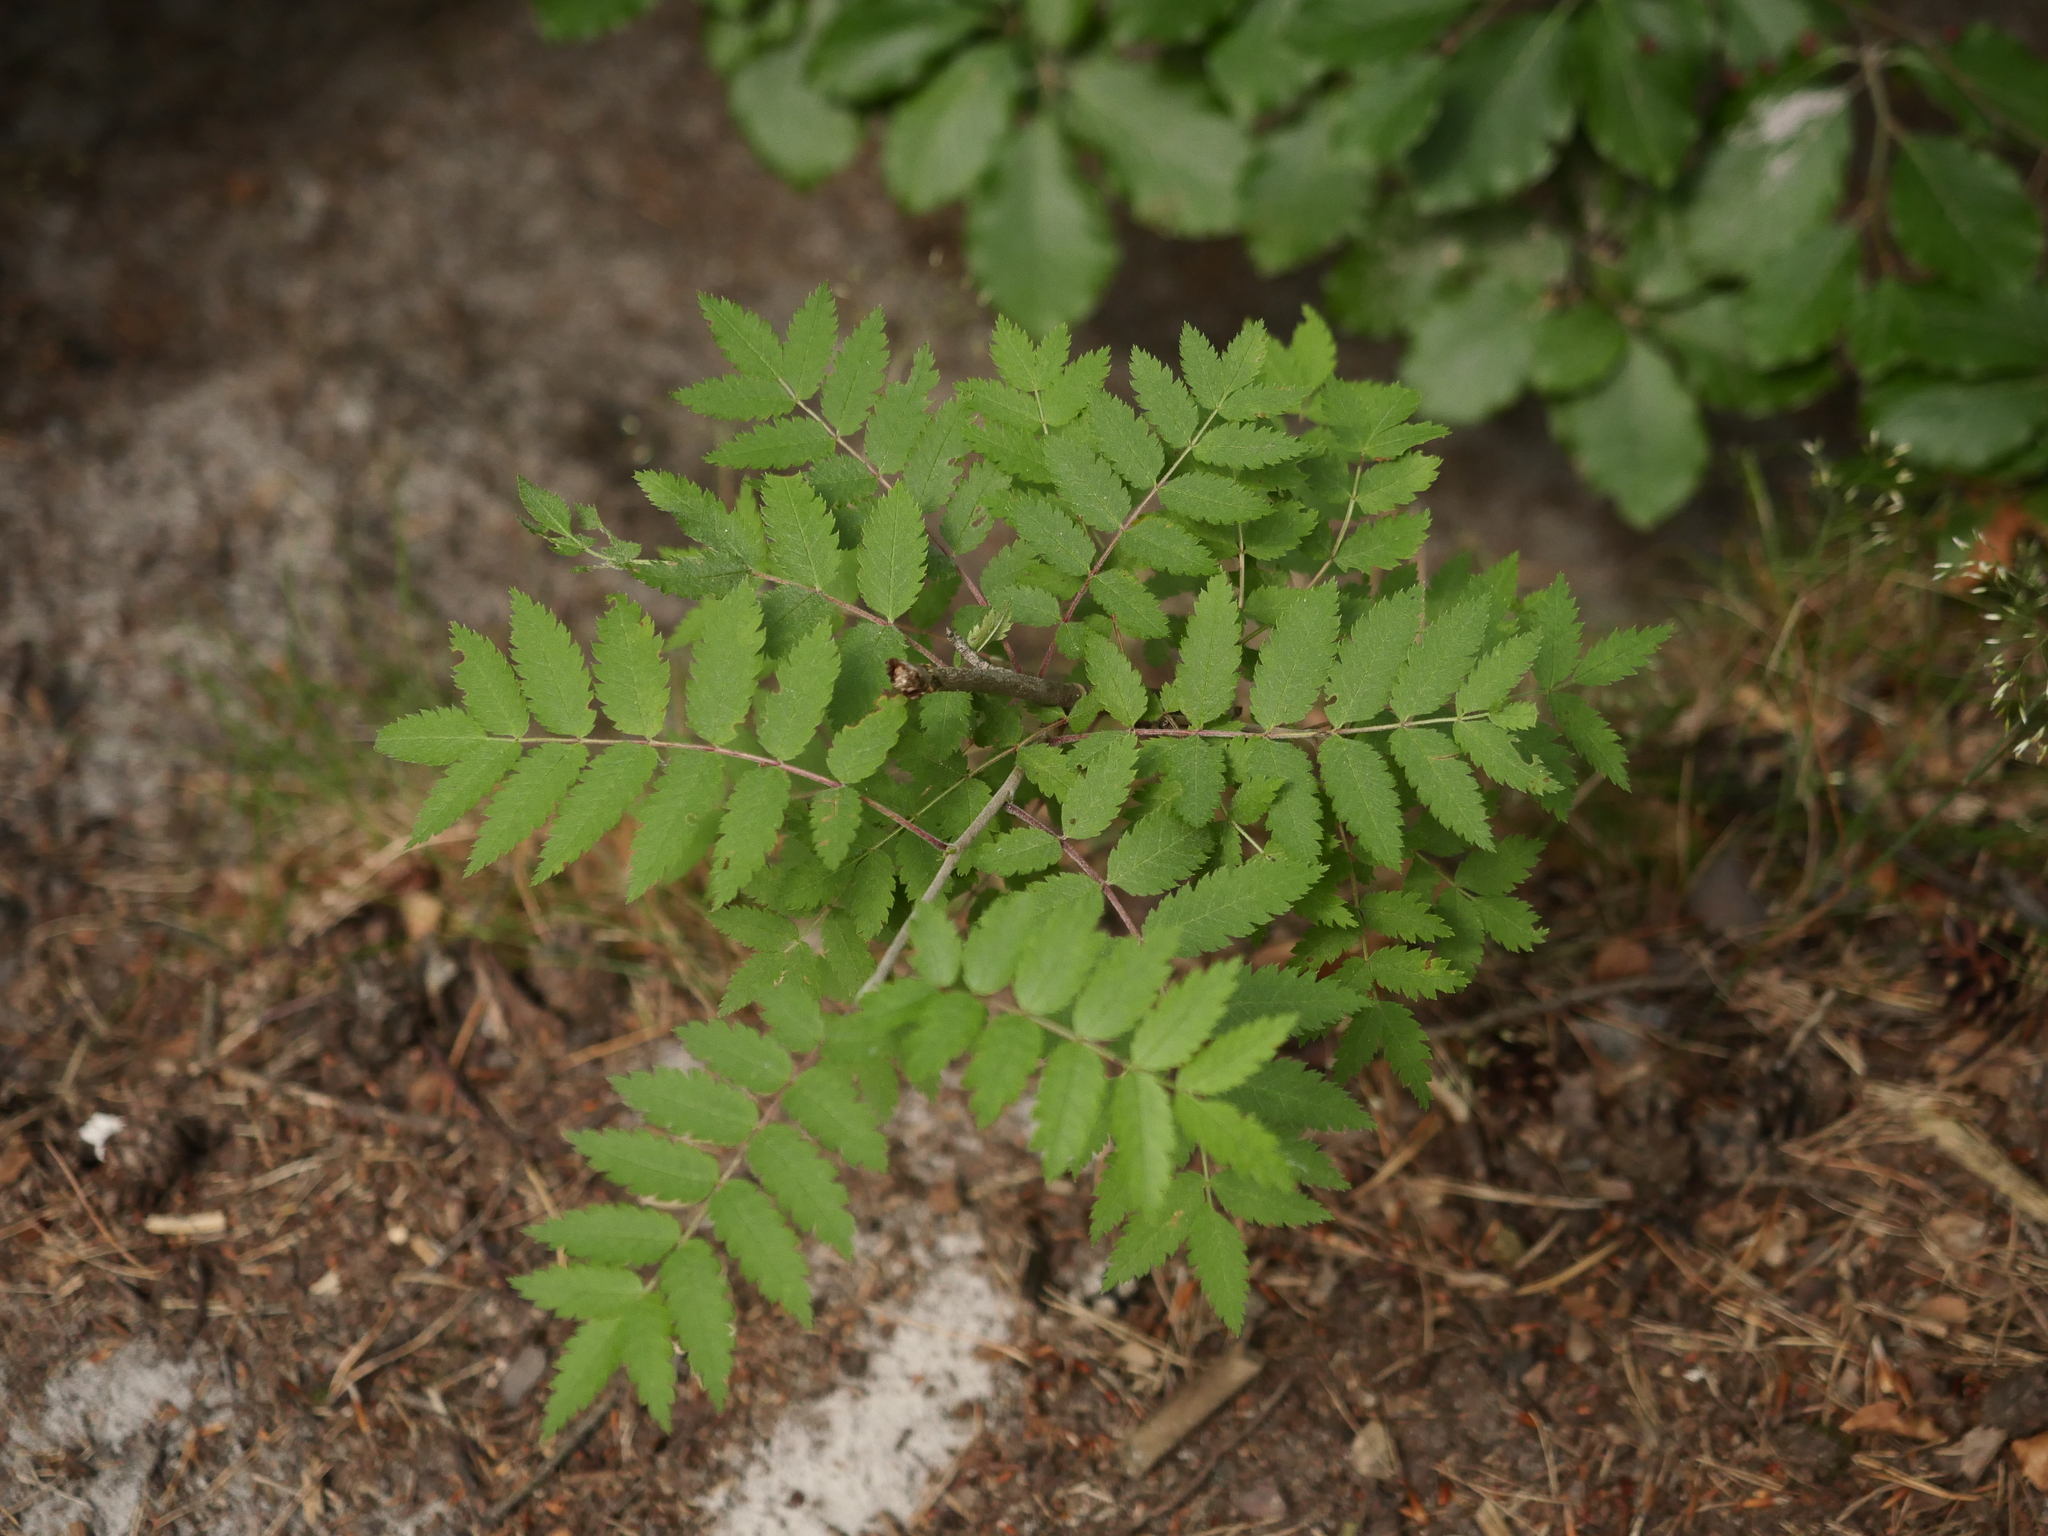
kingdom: Plantae
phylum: Tracheophyta
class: Magnoliopsida
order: Rosales
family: Rosaceae
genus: Sorbus
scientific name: Sorbus aucuparia
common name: Rowan
